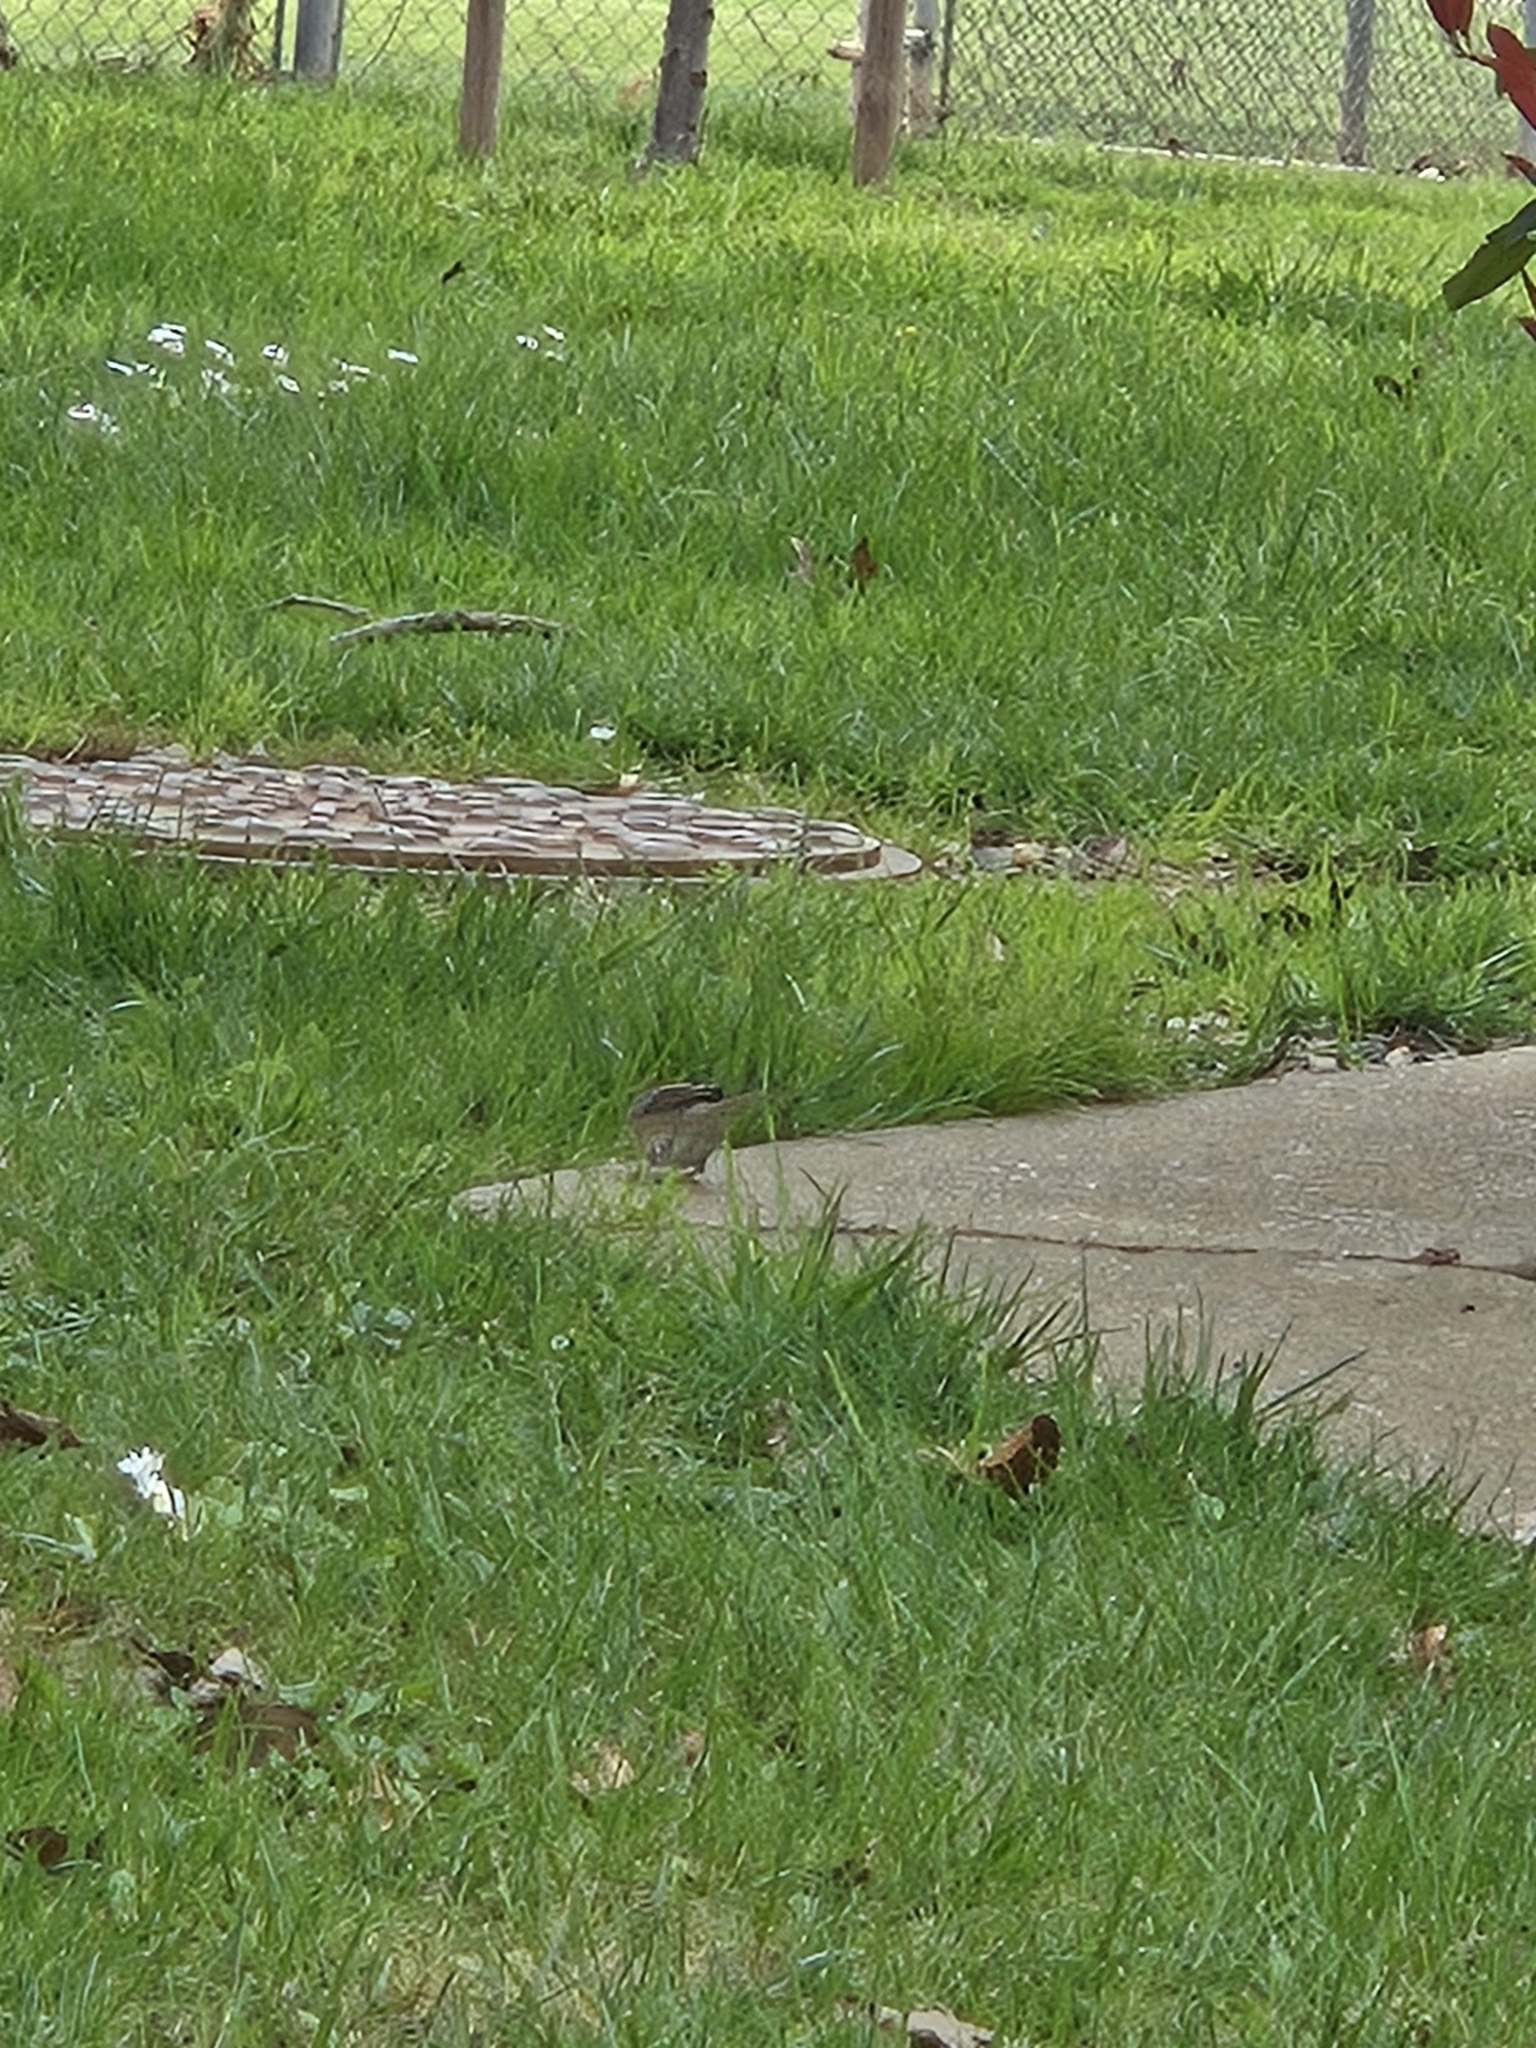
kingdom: Animalia
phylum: Chordata
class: Aves
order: Passeriformes
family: Passerellidae
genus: Junco
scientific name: Junco hyemalis
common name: Dark-eyed junco
